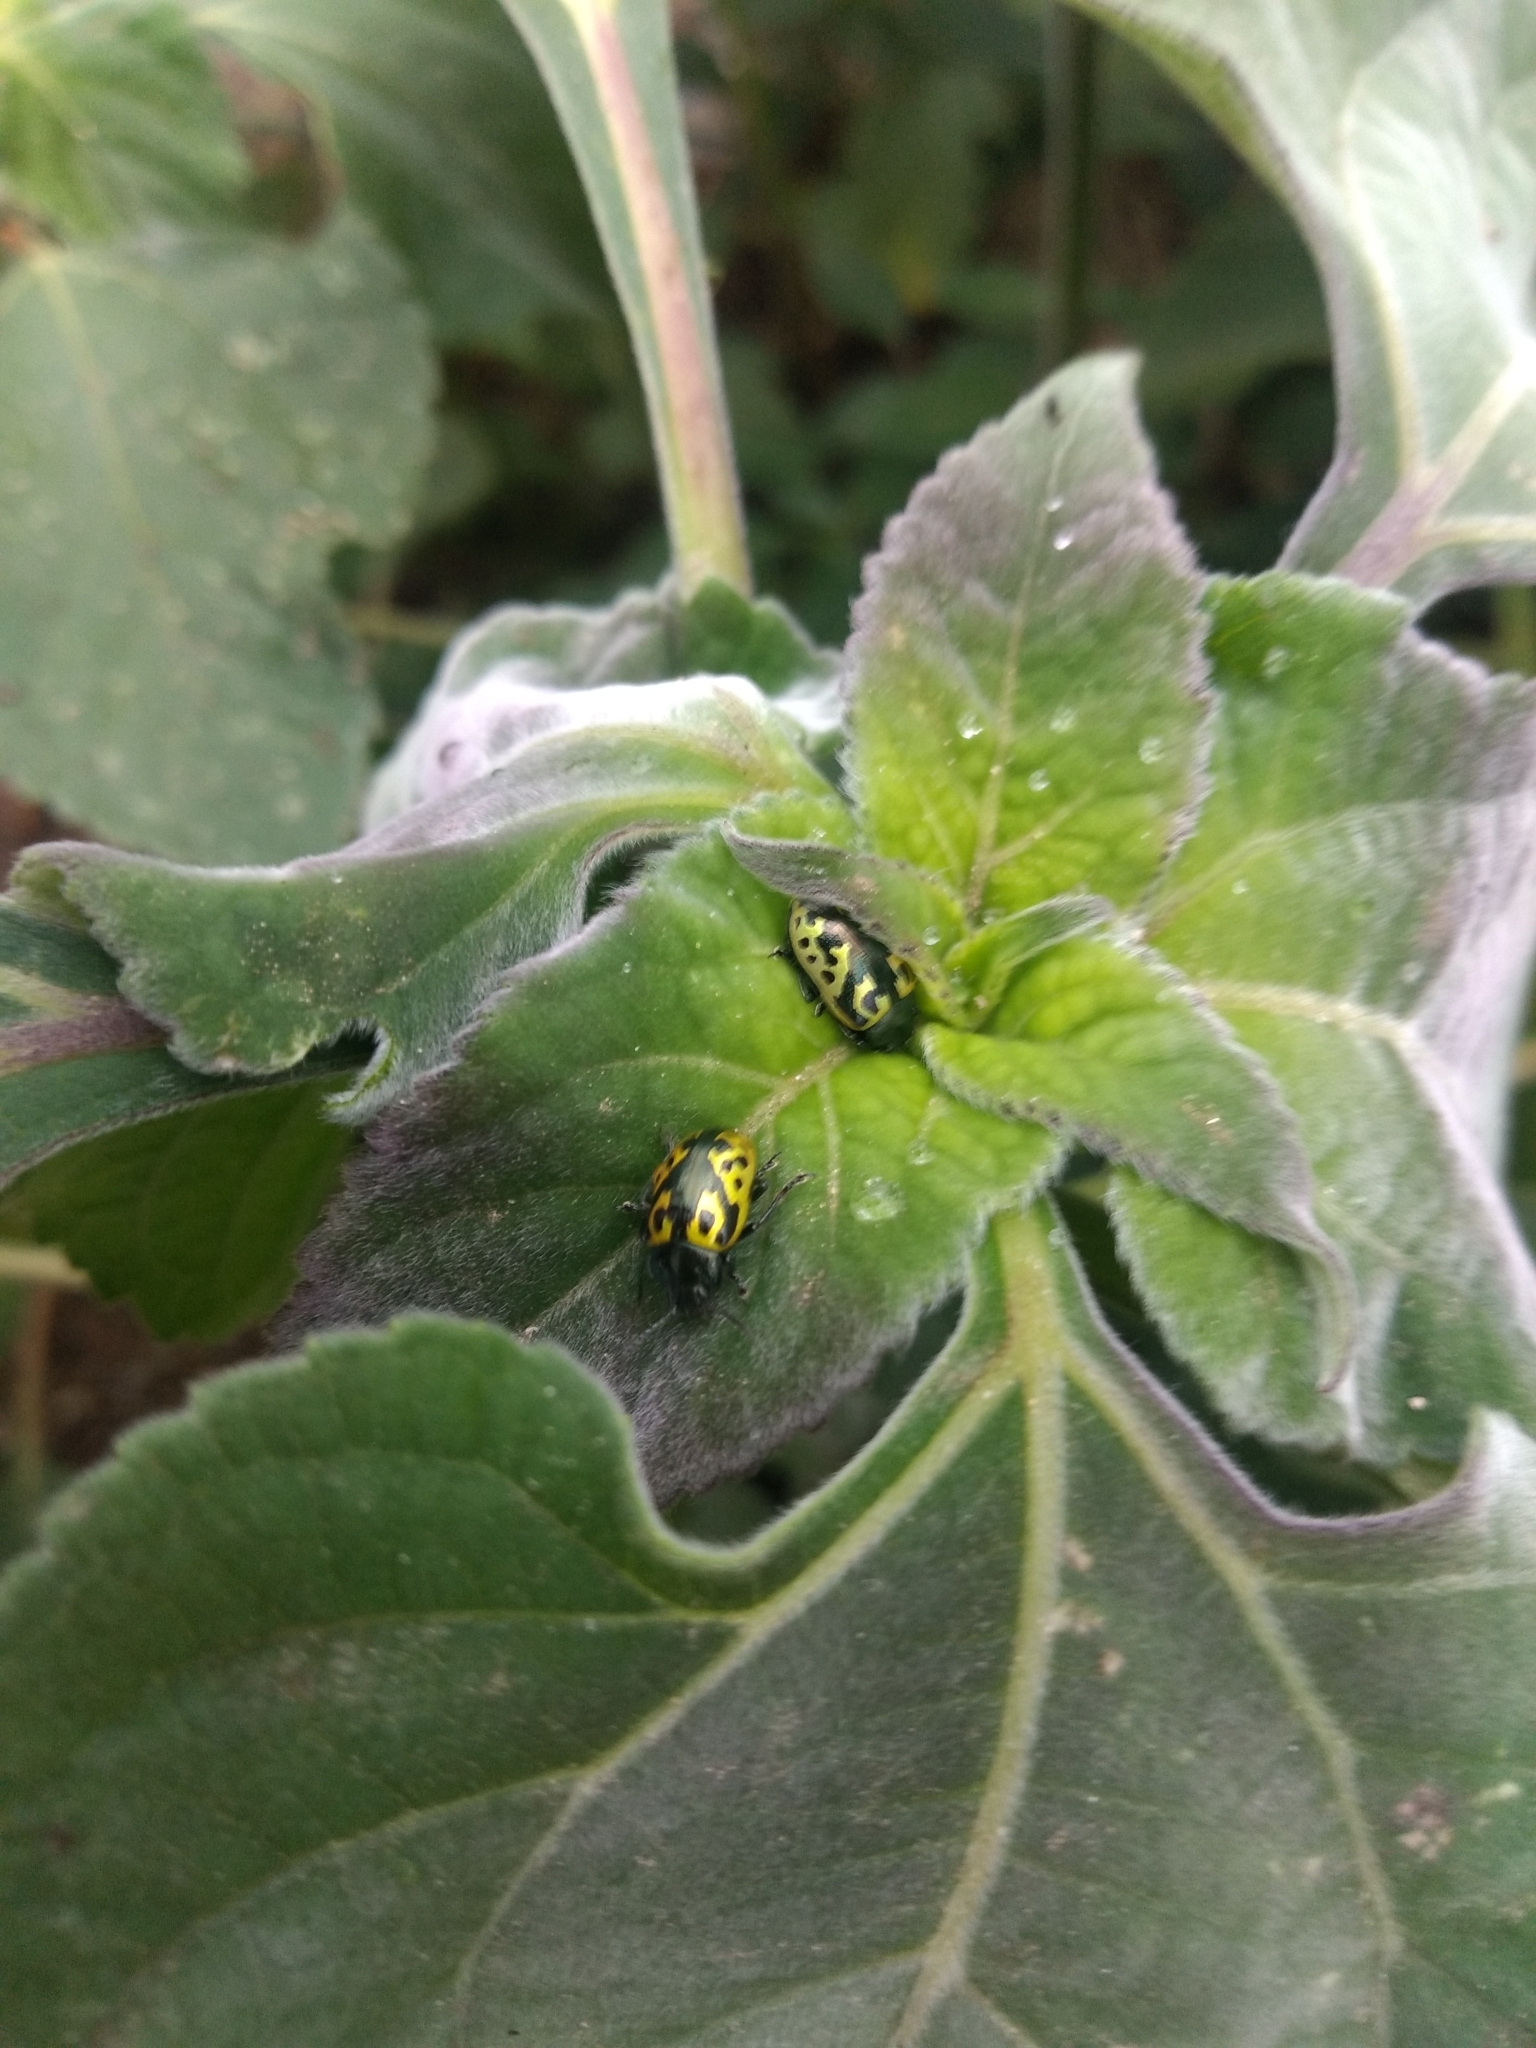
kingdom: Animalia
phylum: Arthropoda
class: Insecta
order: Coleoptera
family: Chrysomelidae
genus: Calligrapha
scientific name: Calligrapha
